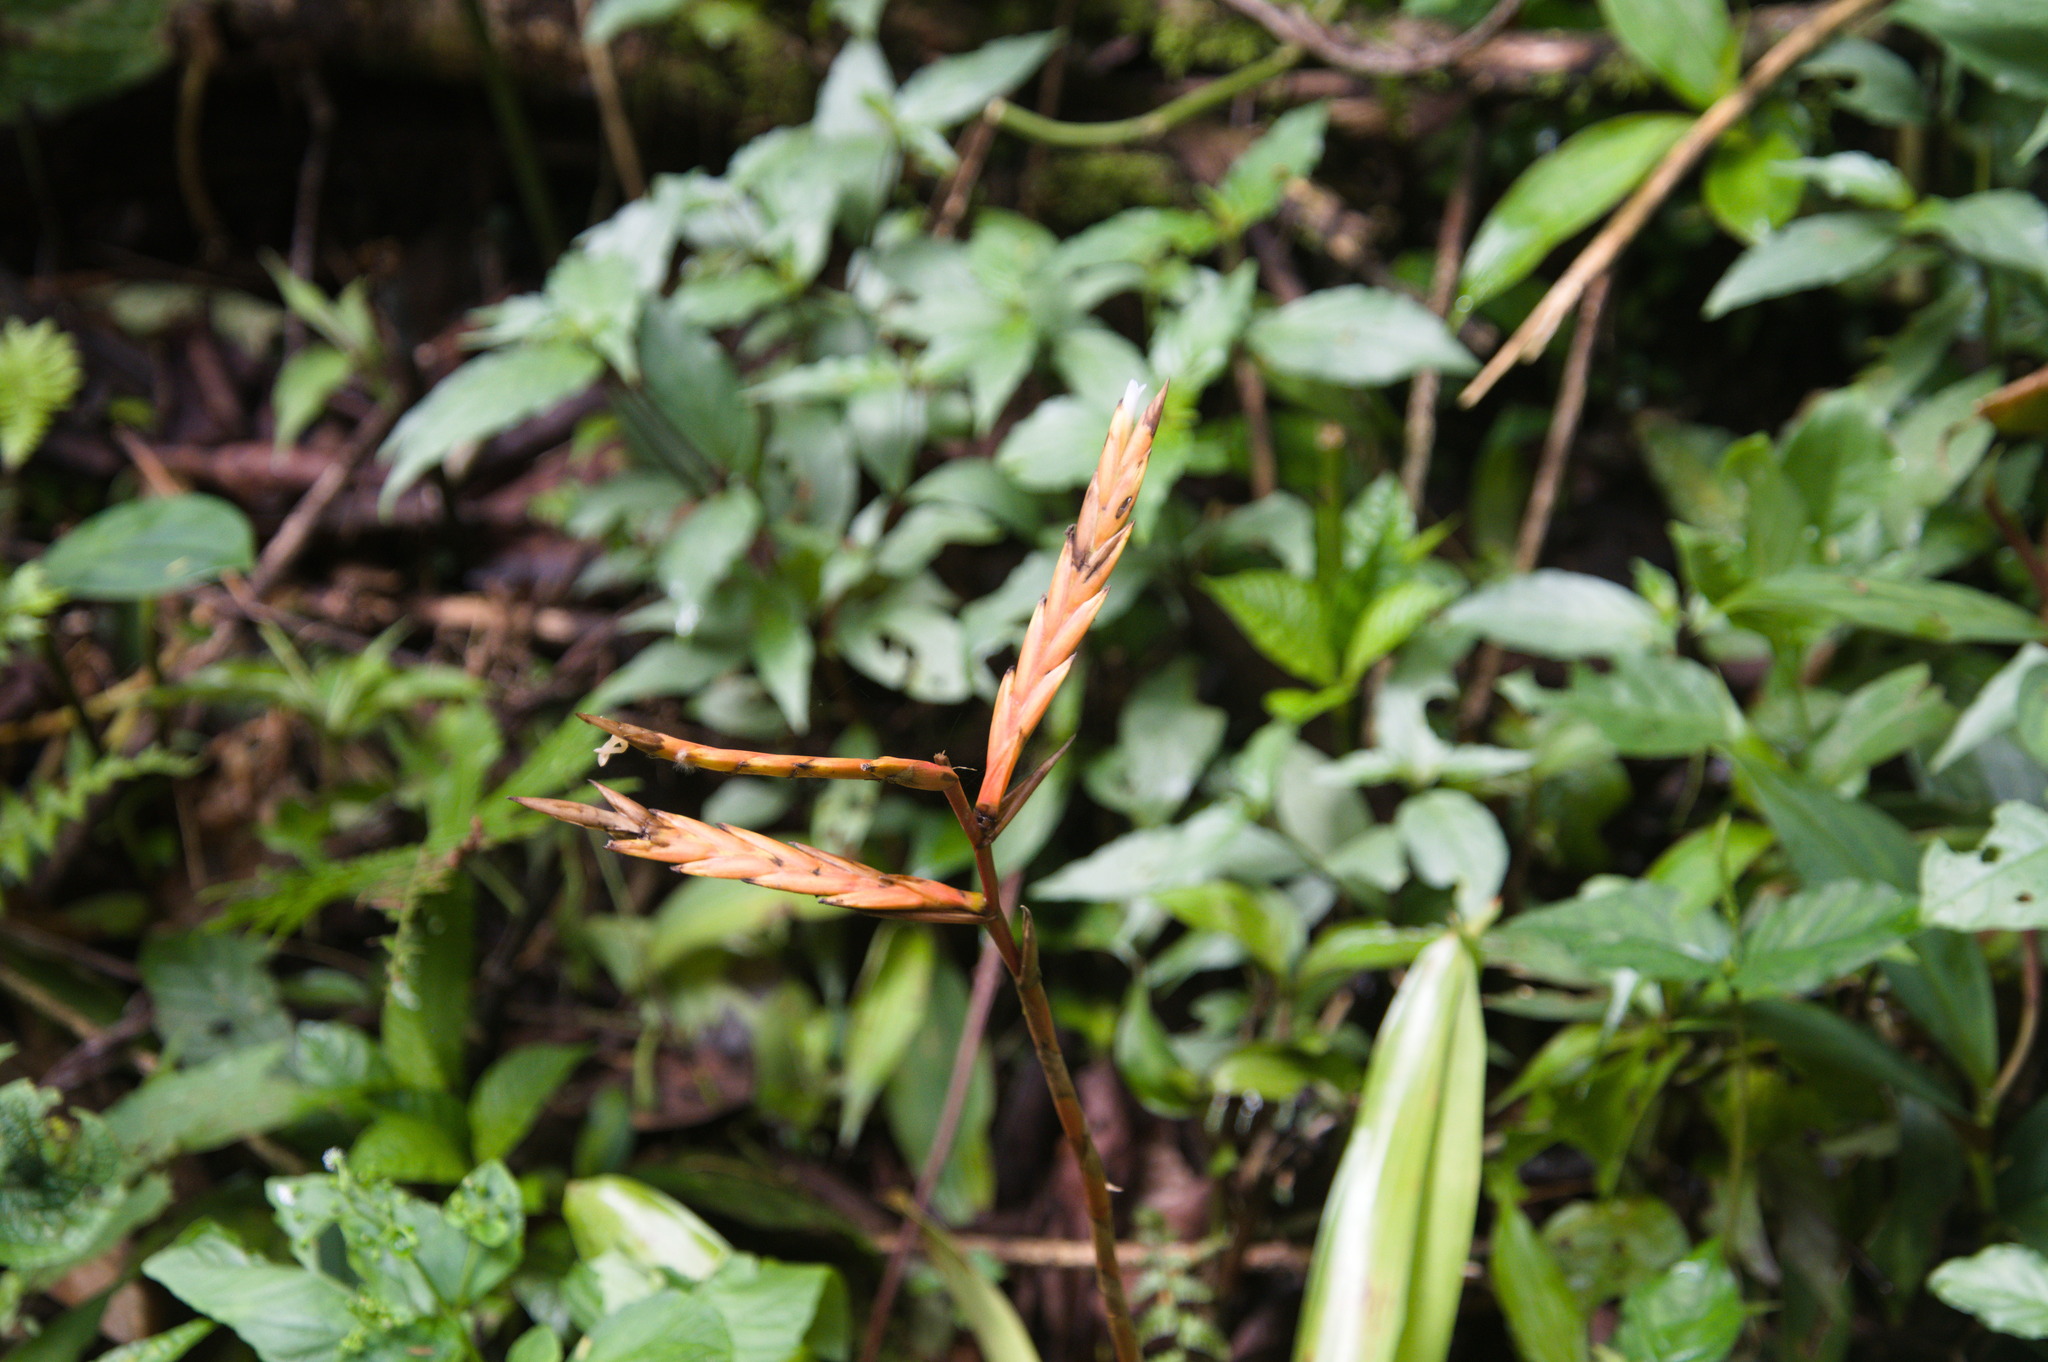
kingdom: Plantae
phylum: Tracheophyta
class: Liliopsida
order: Poales
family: Bromeliaceae
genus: Vriesea
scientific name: Vriesea rubra
